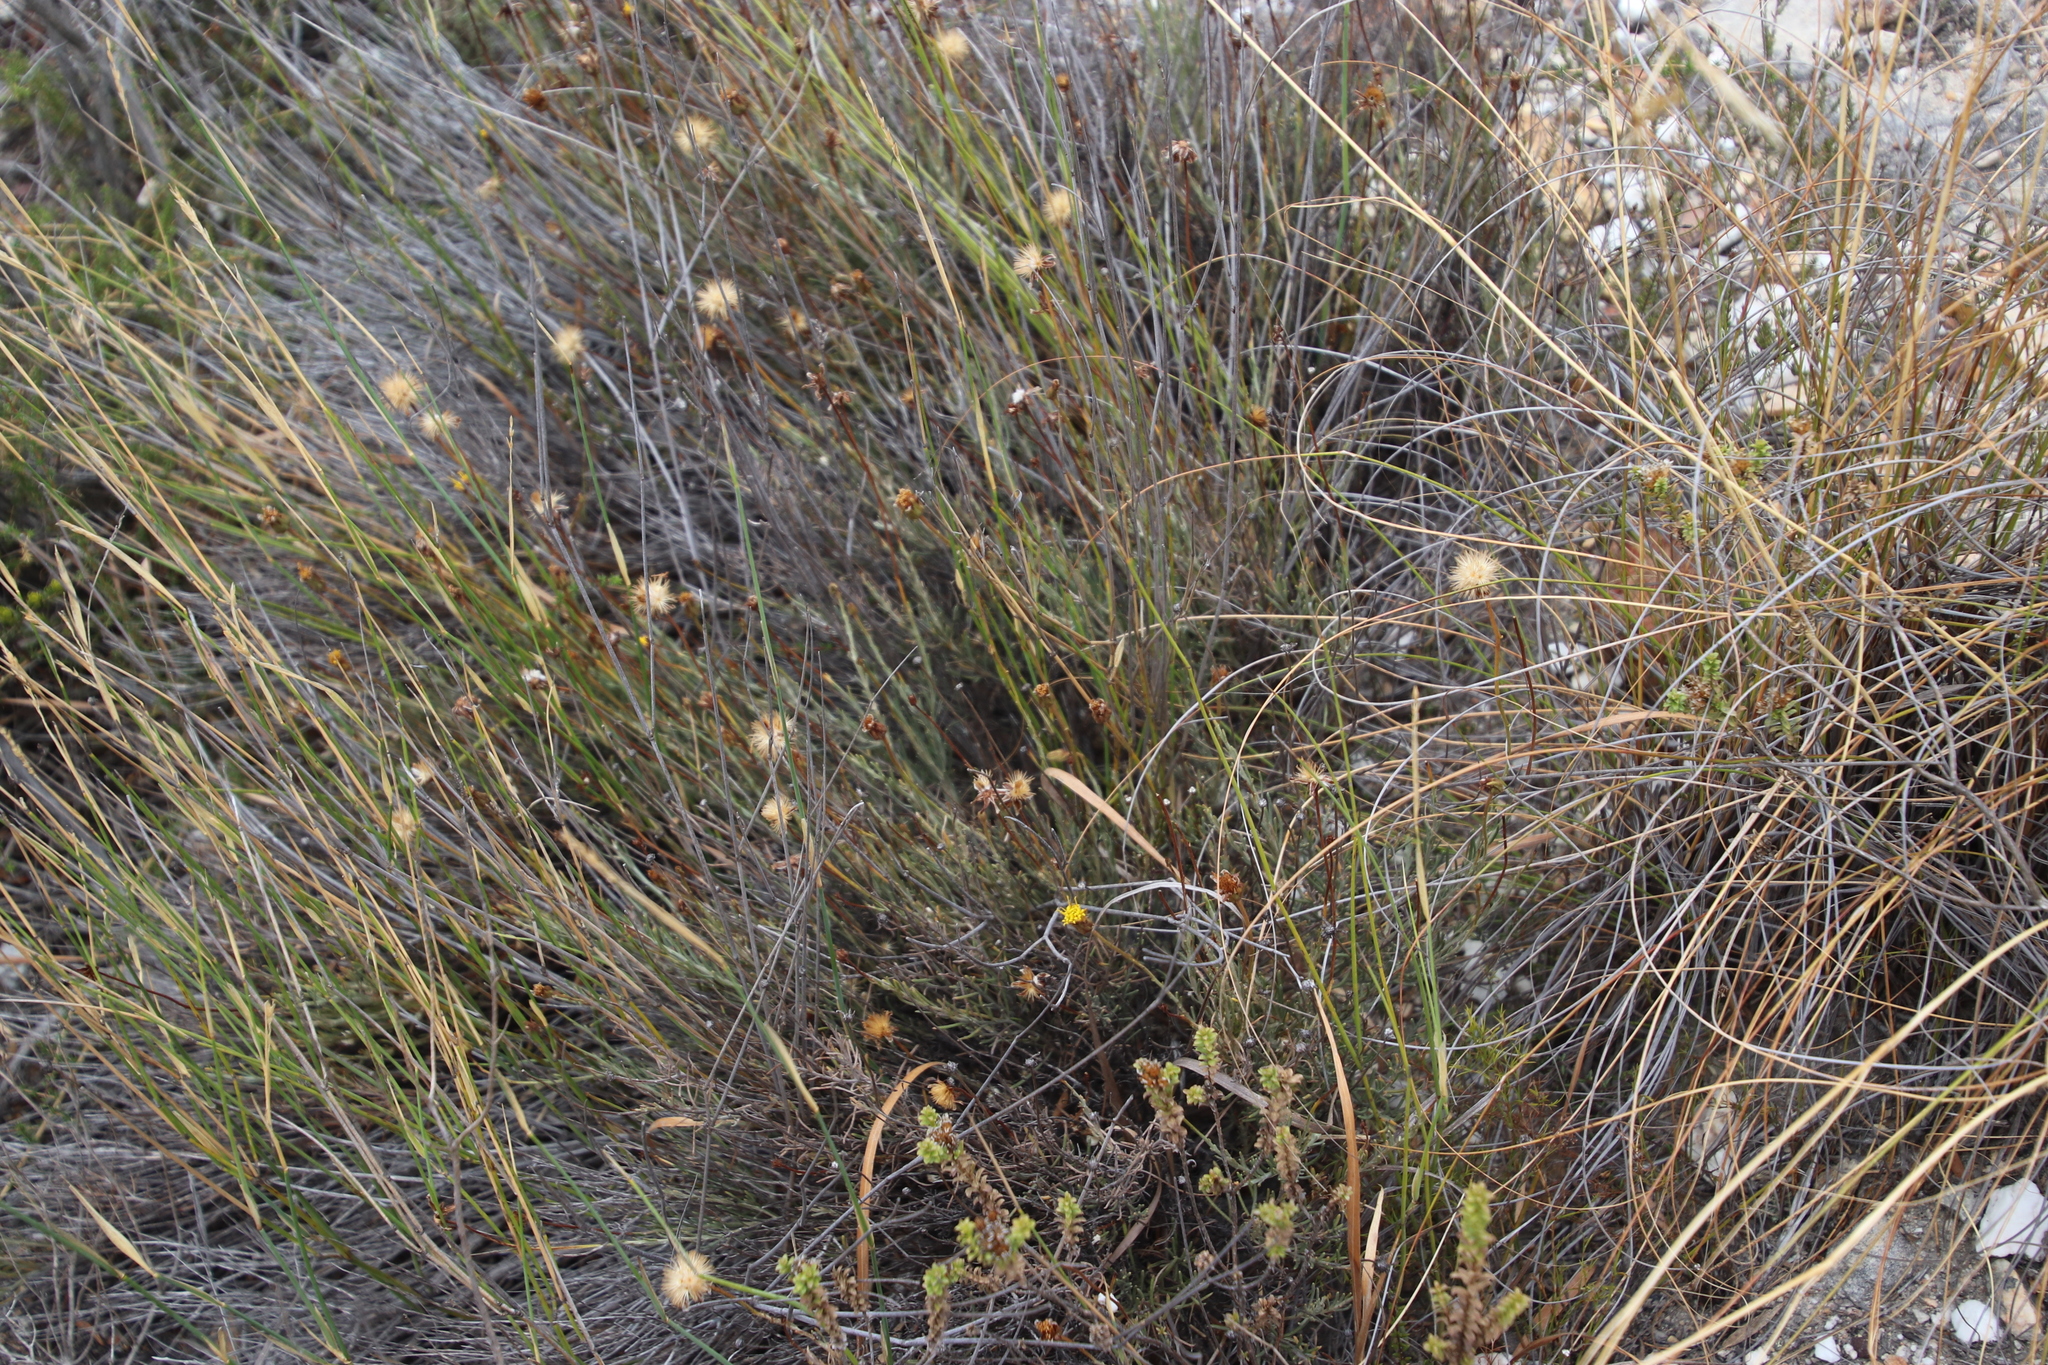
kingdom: Plantae
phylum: Tracheophyta
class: Magnoliopsida
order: Asterales
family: Asteraceae
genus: Heterolepis
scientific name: Heterolepis peduncularis
